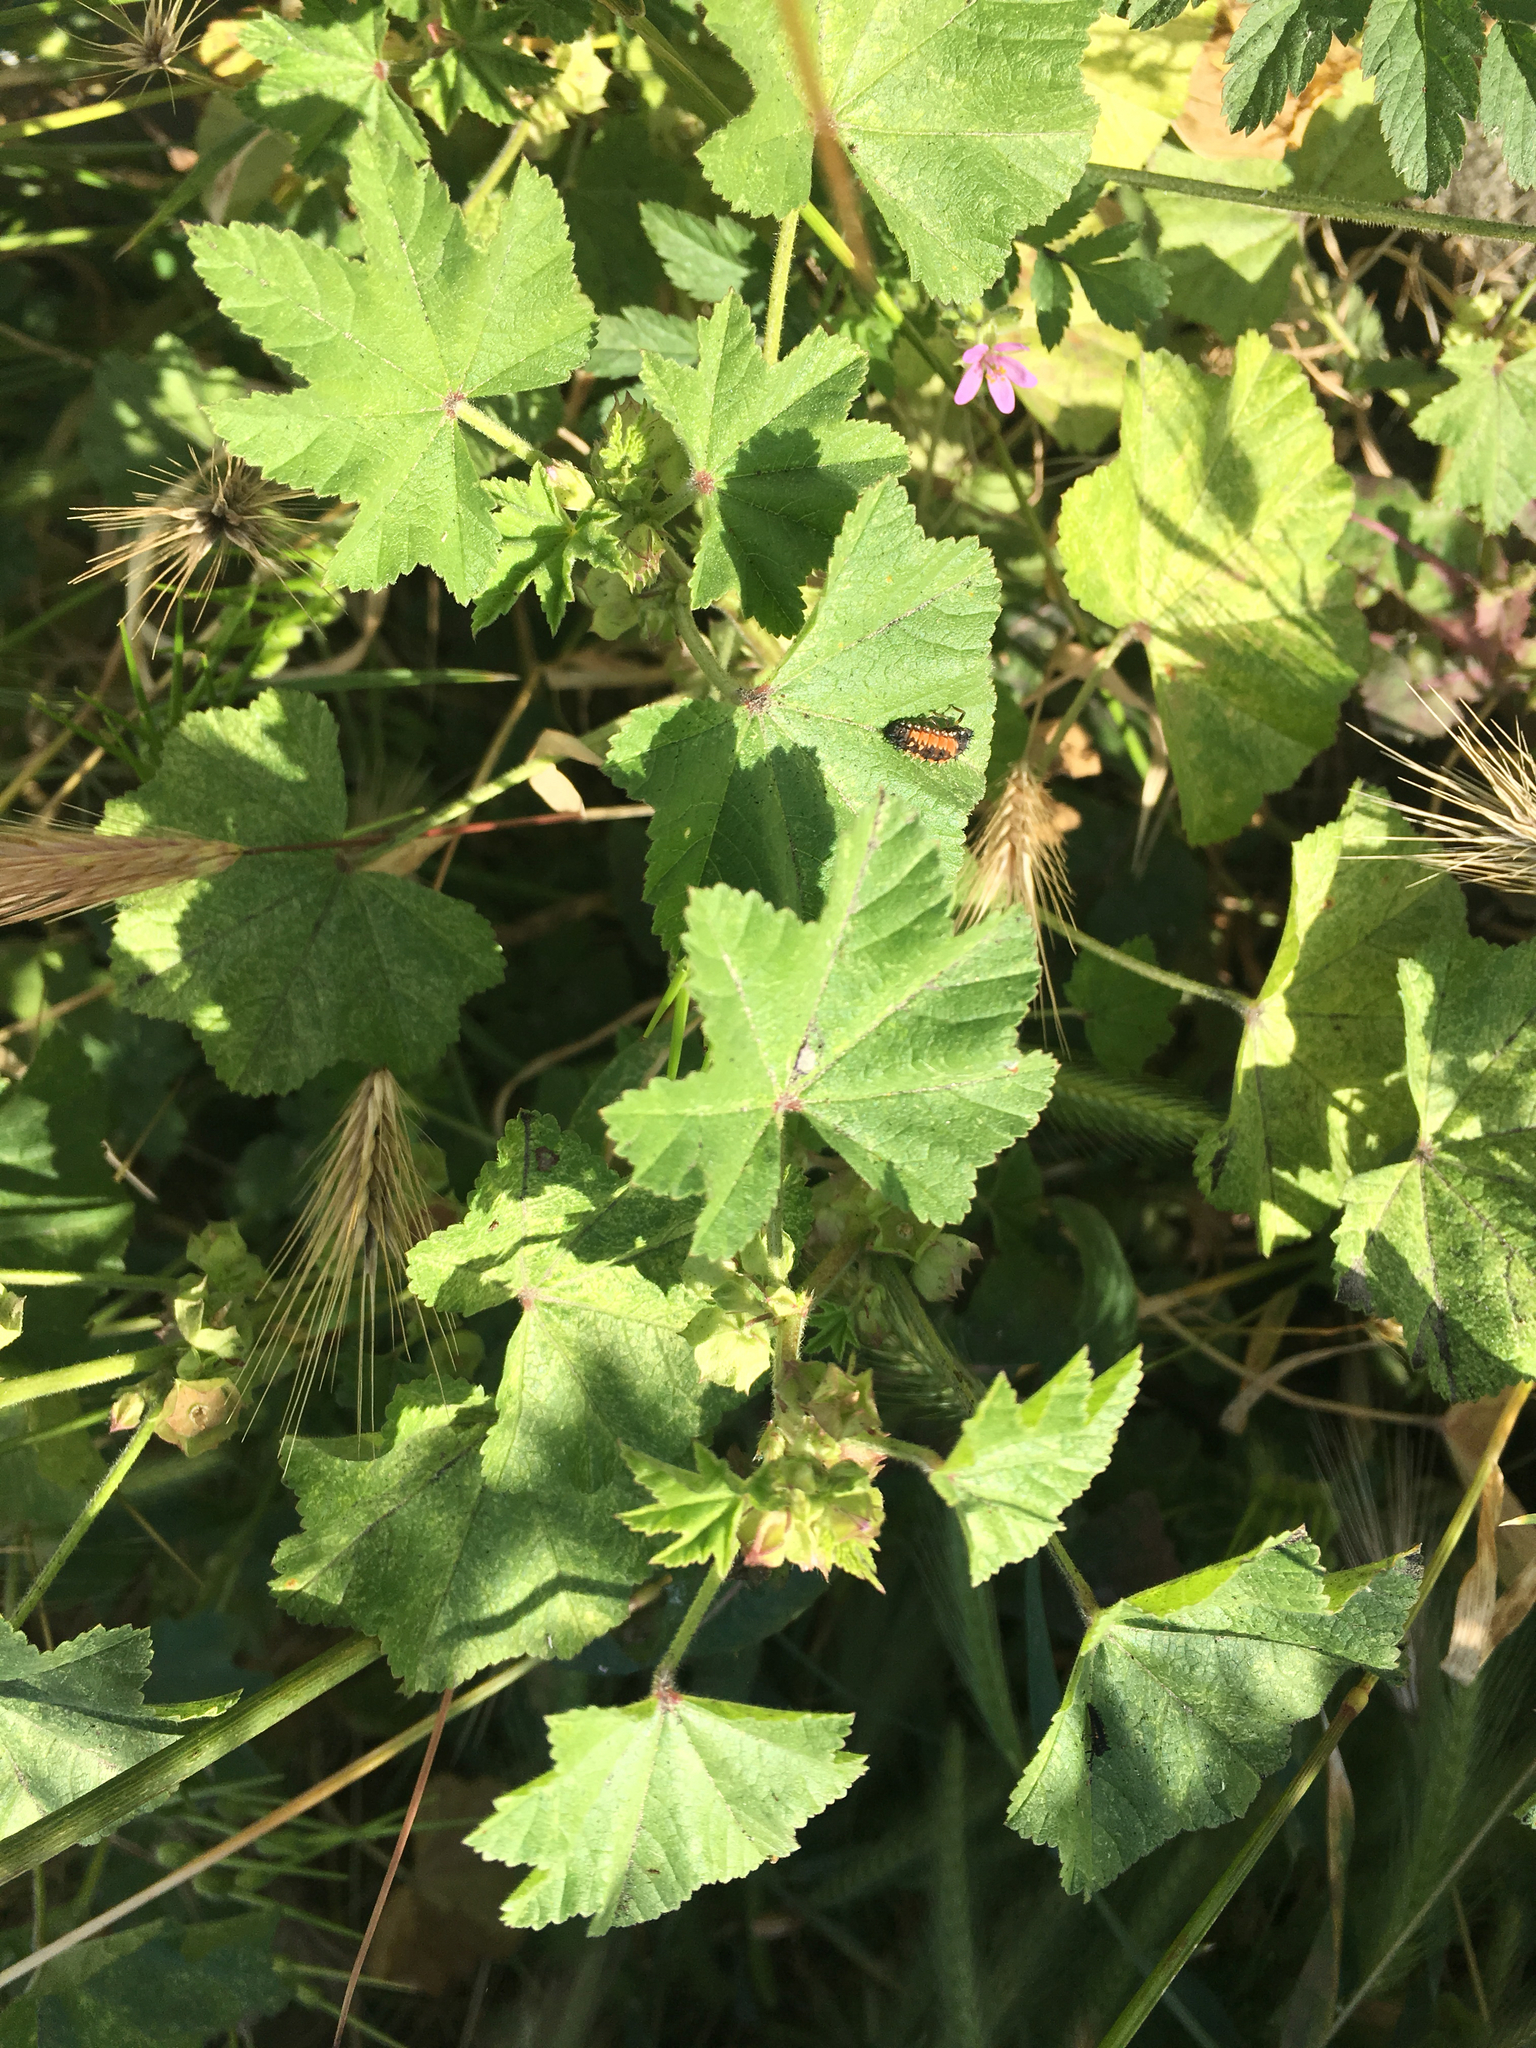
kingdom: Plantae
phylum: Tracheophyta
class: Magnoliopsida
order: Malvales
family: Malvaceae
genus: Malva
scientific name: Malva parviflora
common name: Least mallow
